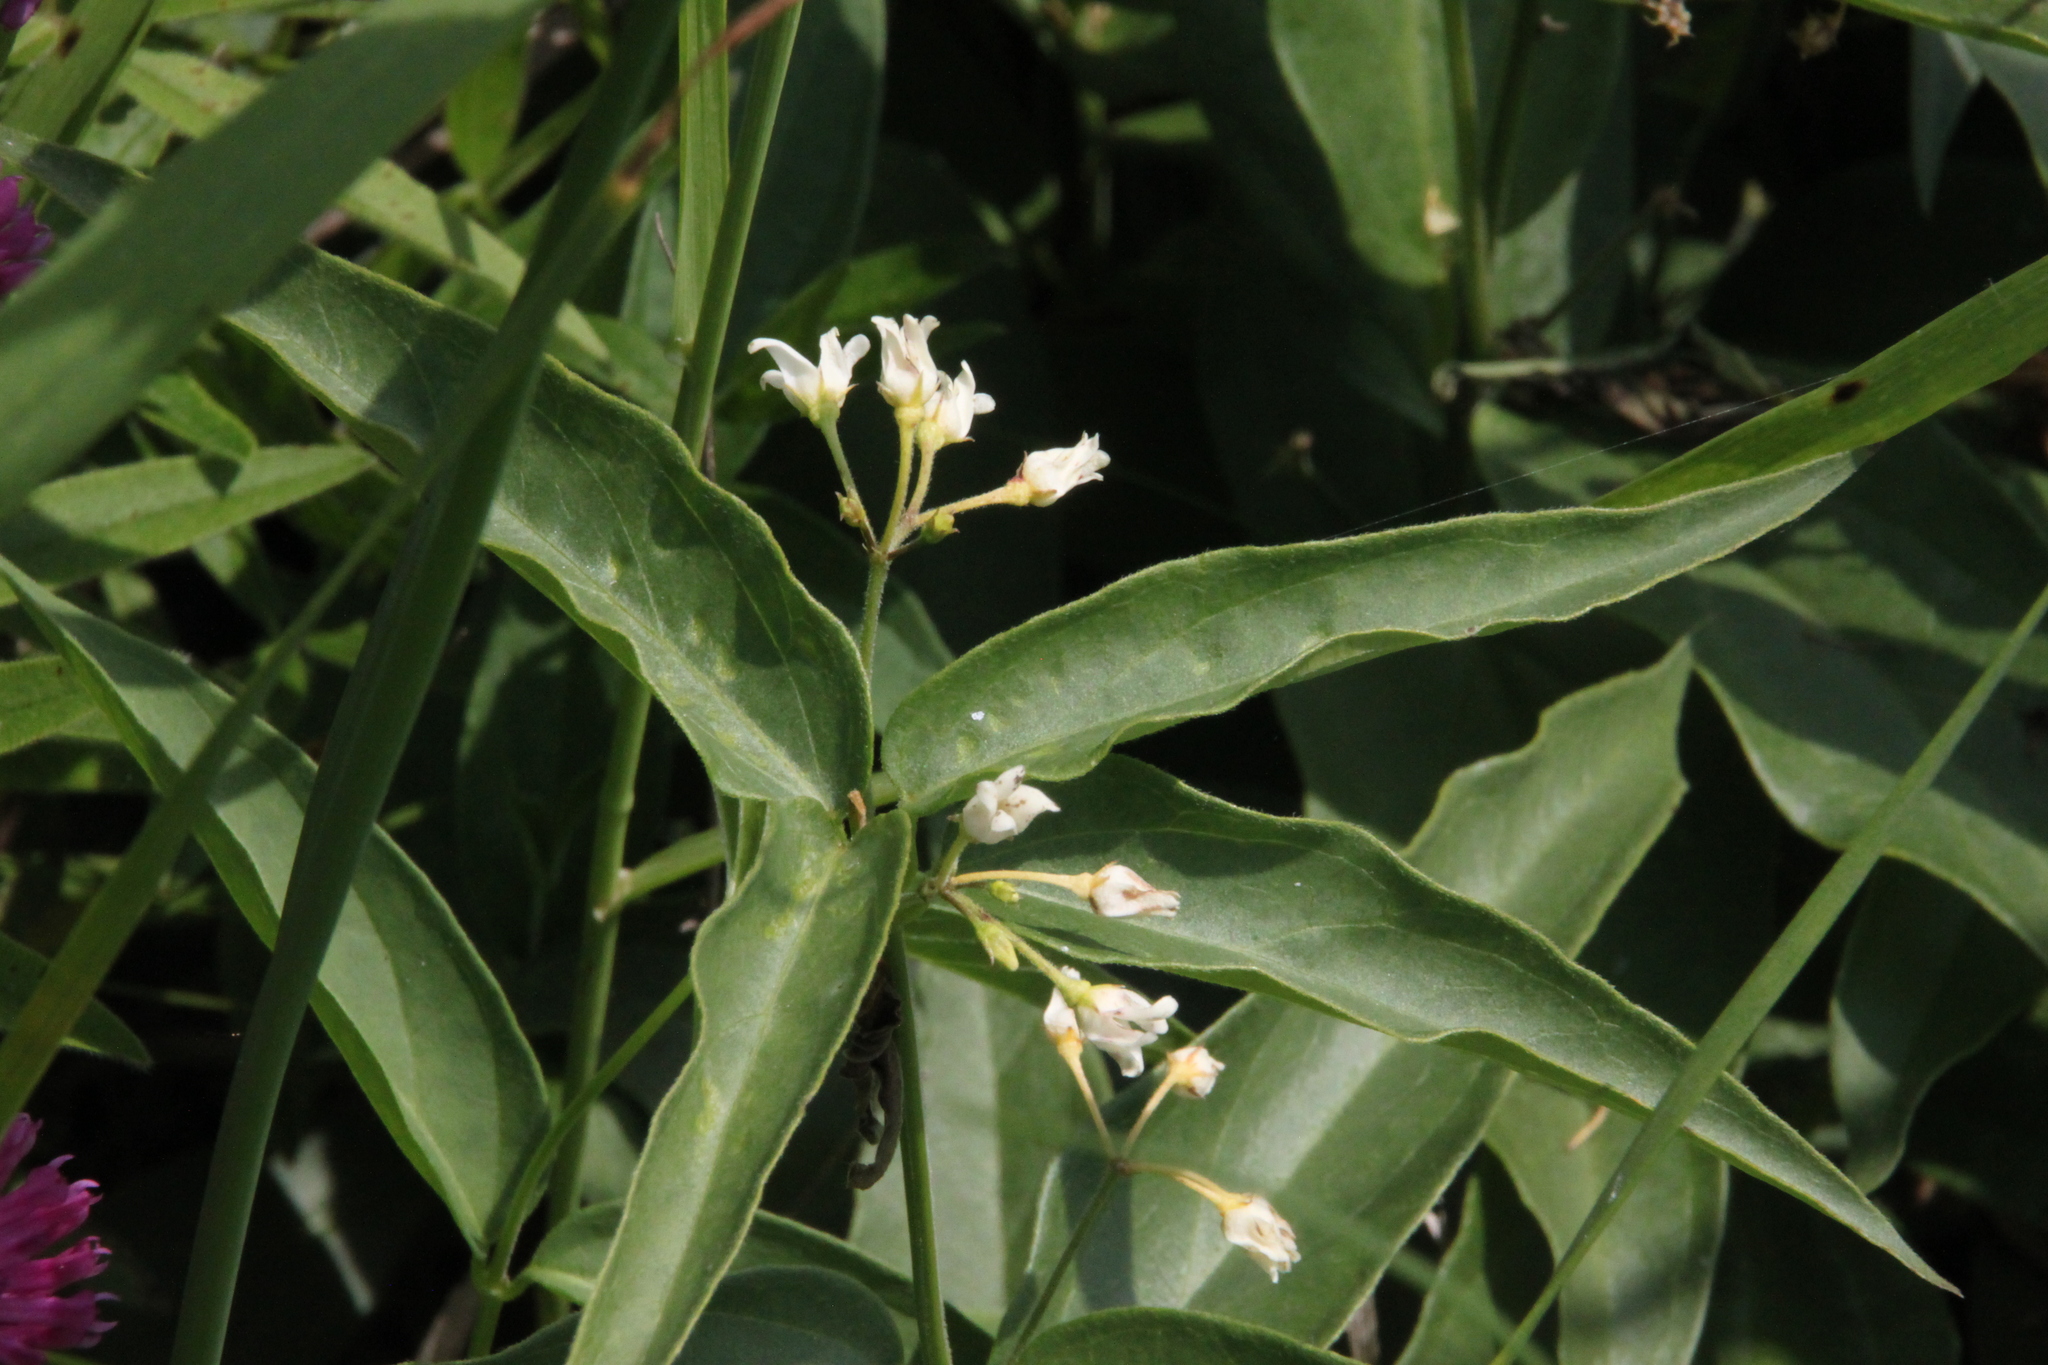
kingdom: Plantae
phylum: Tracheophyta
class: Magnoliopsida
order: Gentianales
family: Apocynaceae
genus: Vincetoxicum
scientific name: Vincetoxicum hirundinaria
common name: White swallowwort
